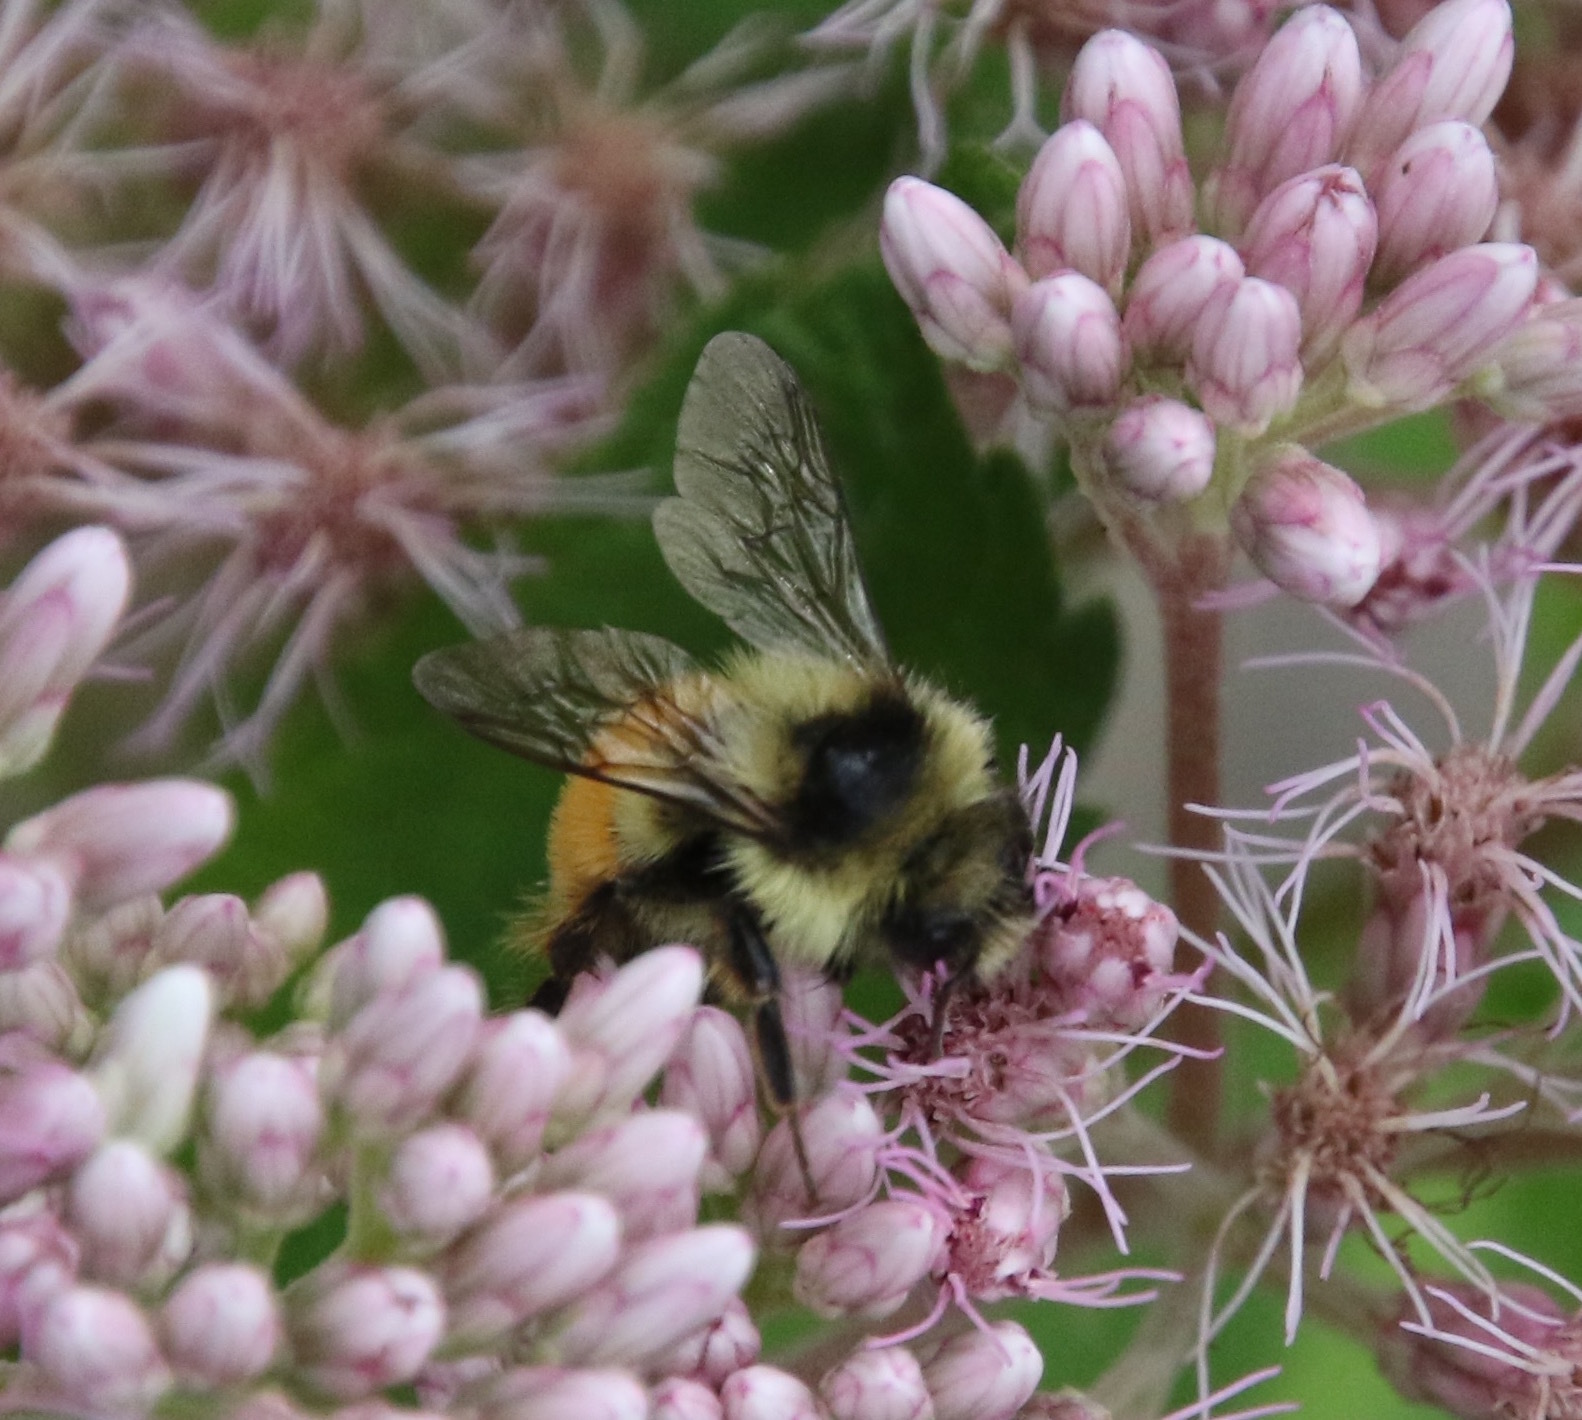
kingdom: Animalia
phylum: Arthropoda
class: Insecta
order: Hymenoptera
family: Apidae
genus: Bombus
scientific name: Bombus ternarius
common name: Tri-colored bumble bee
